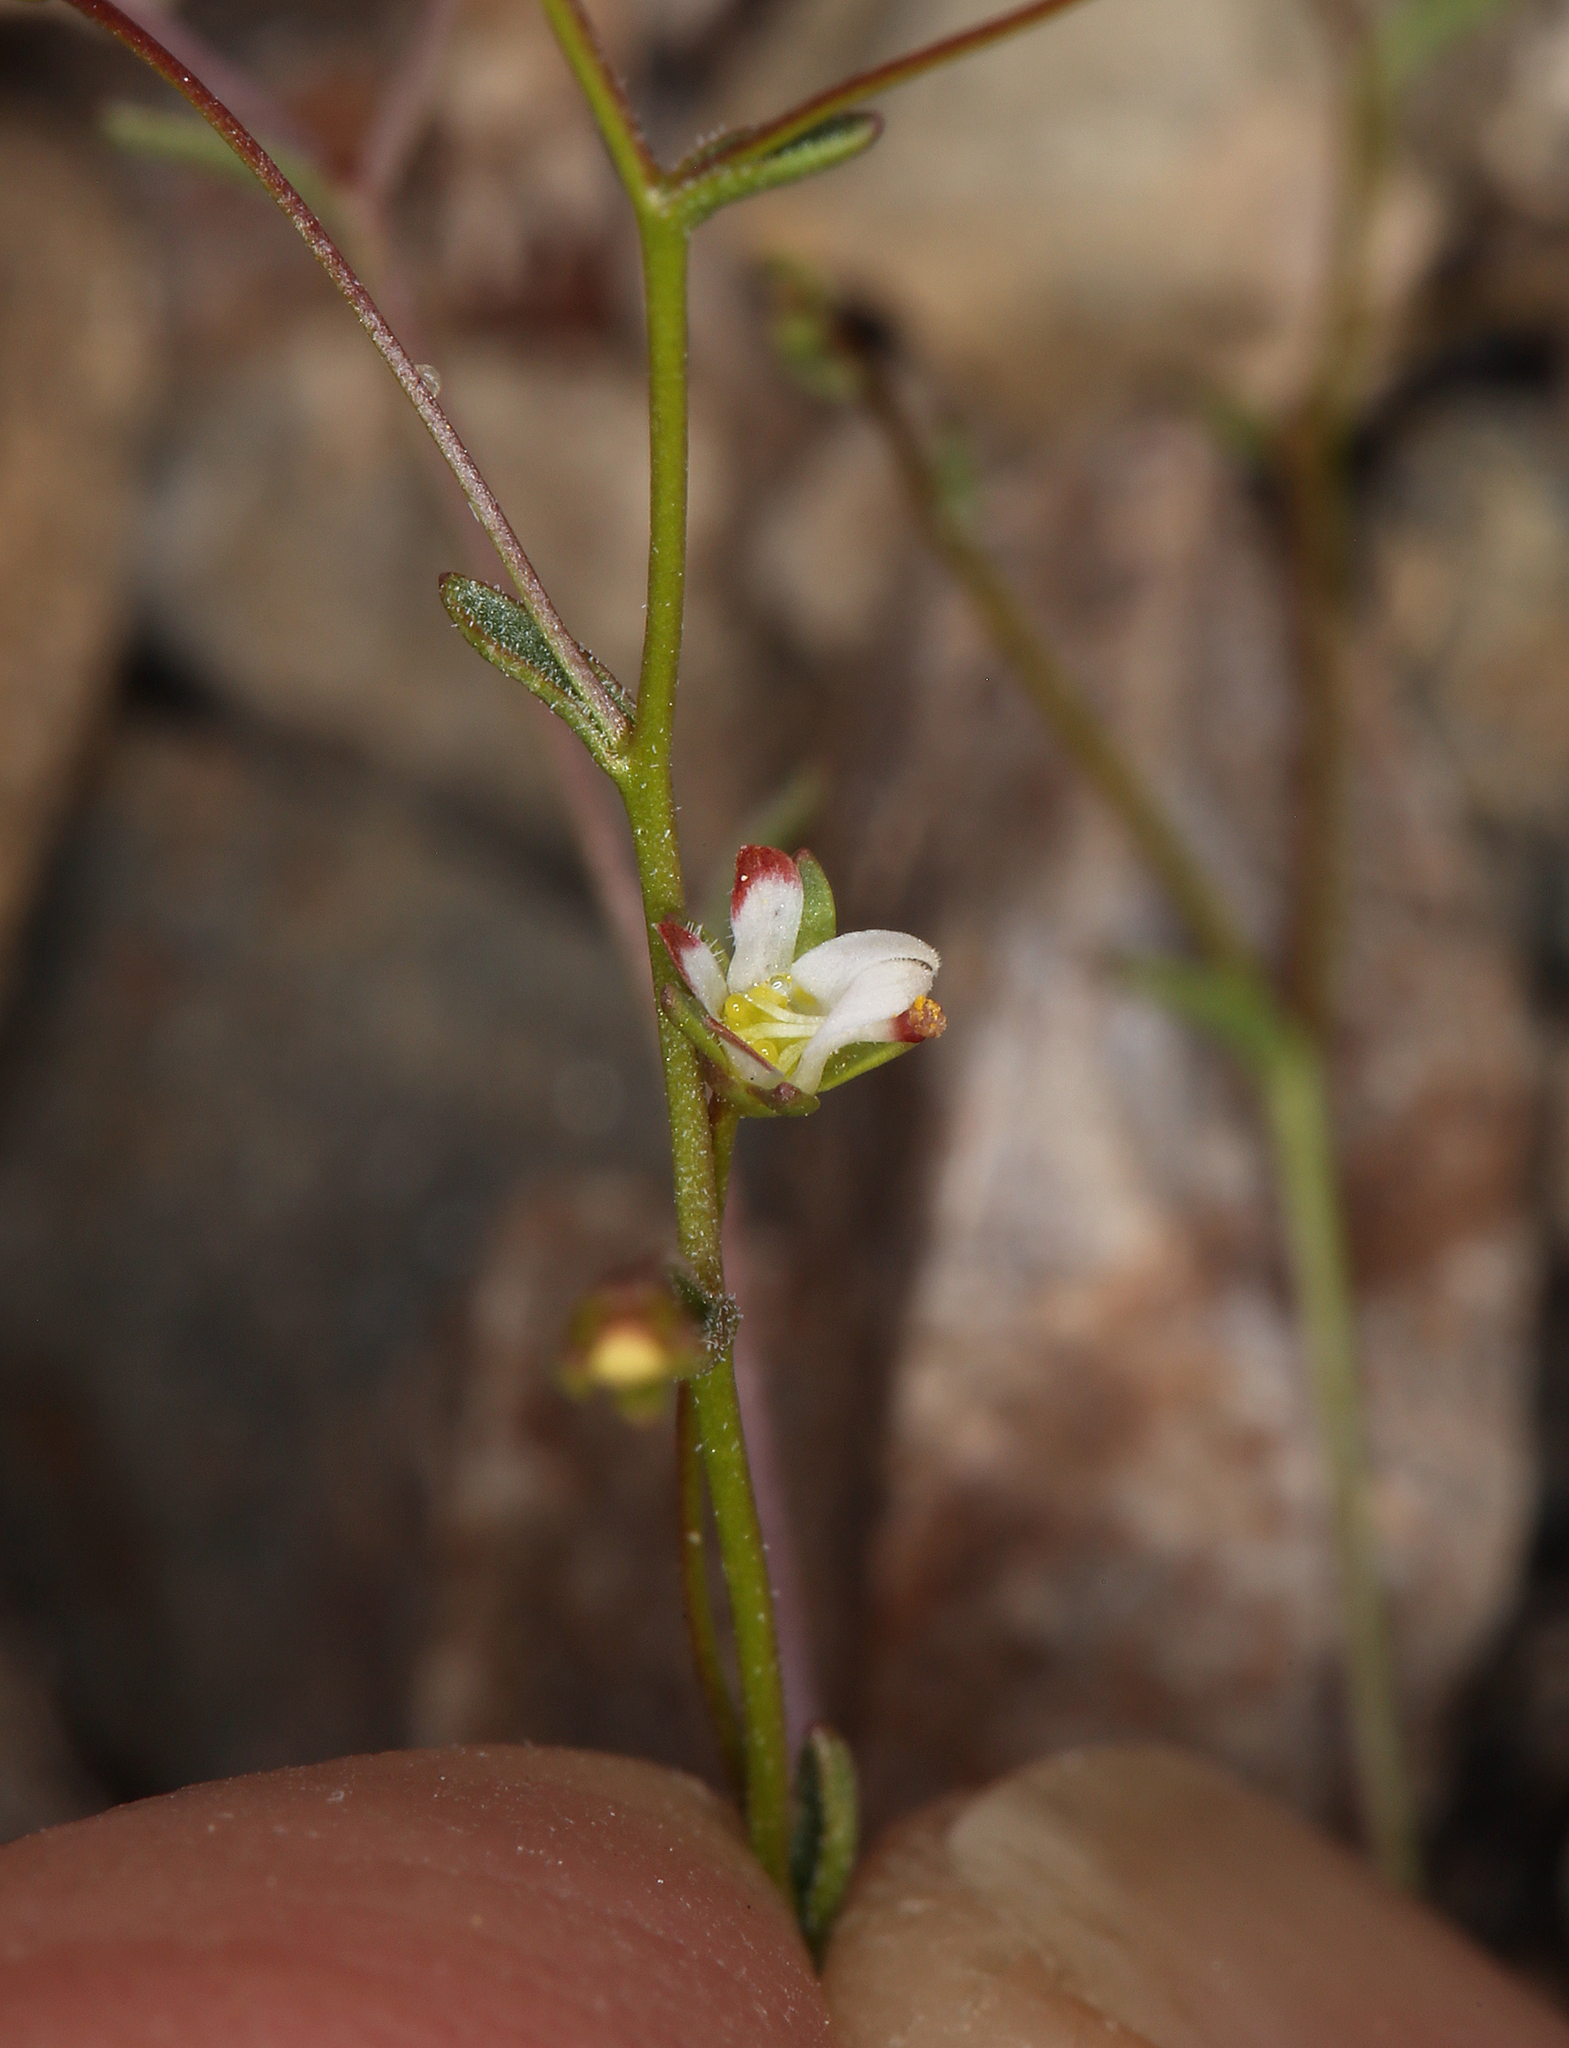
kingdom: Plantae
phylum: Tracheophyta
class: Magnoliopsida
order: Asterales
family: Campanulaceae
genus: Nemacladus
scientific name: Nemacladus morefieldii
